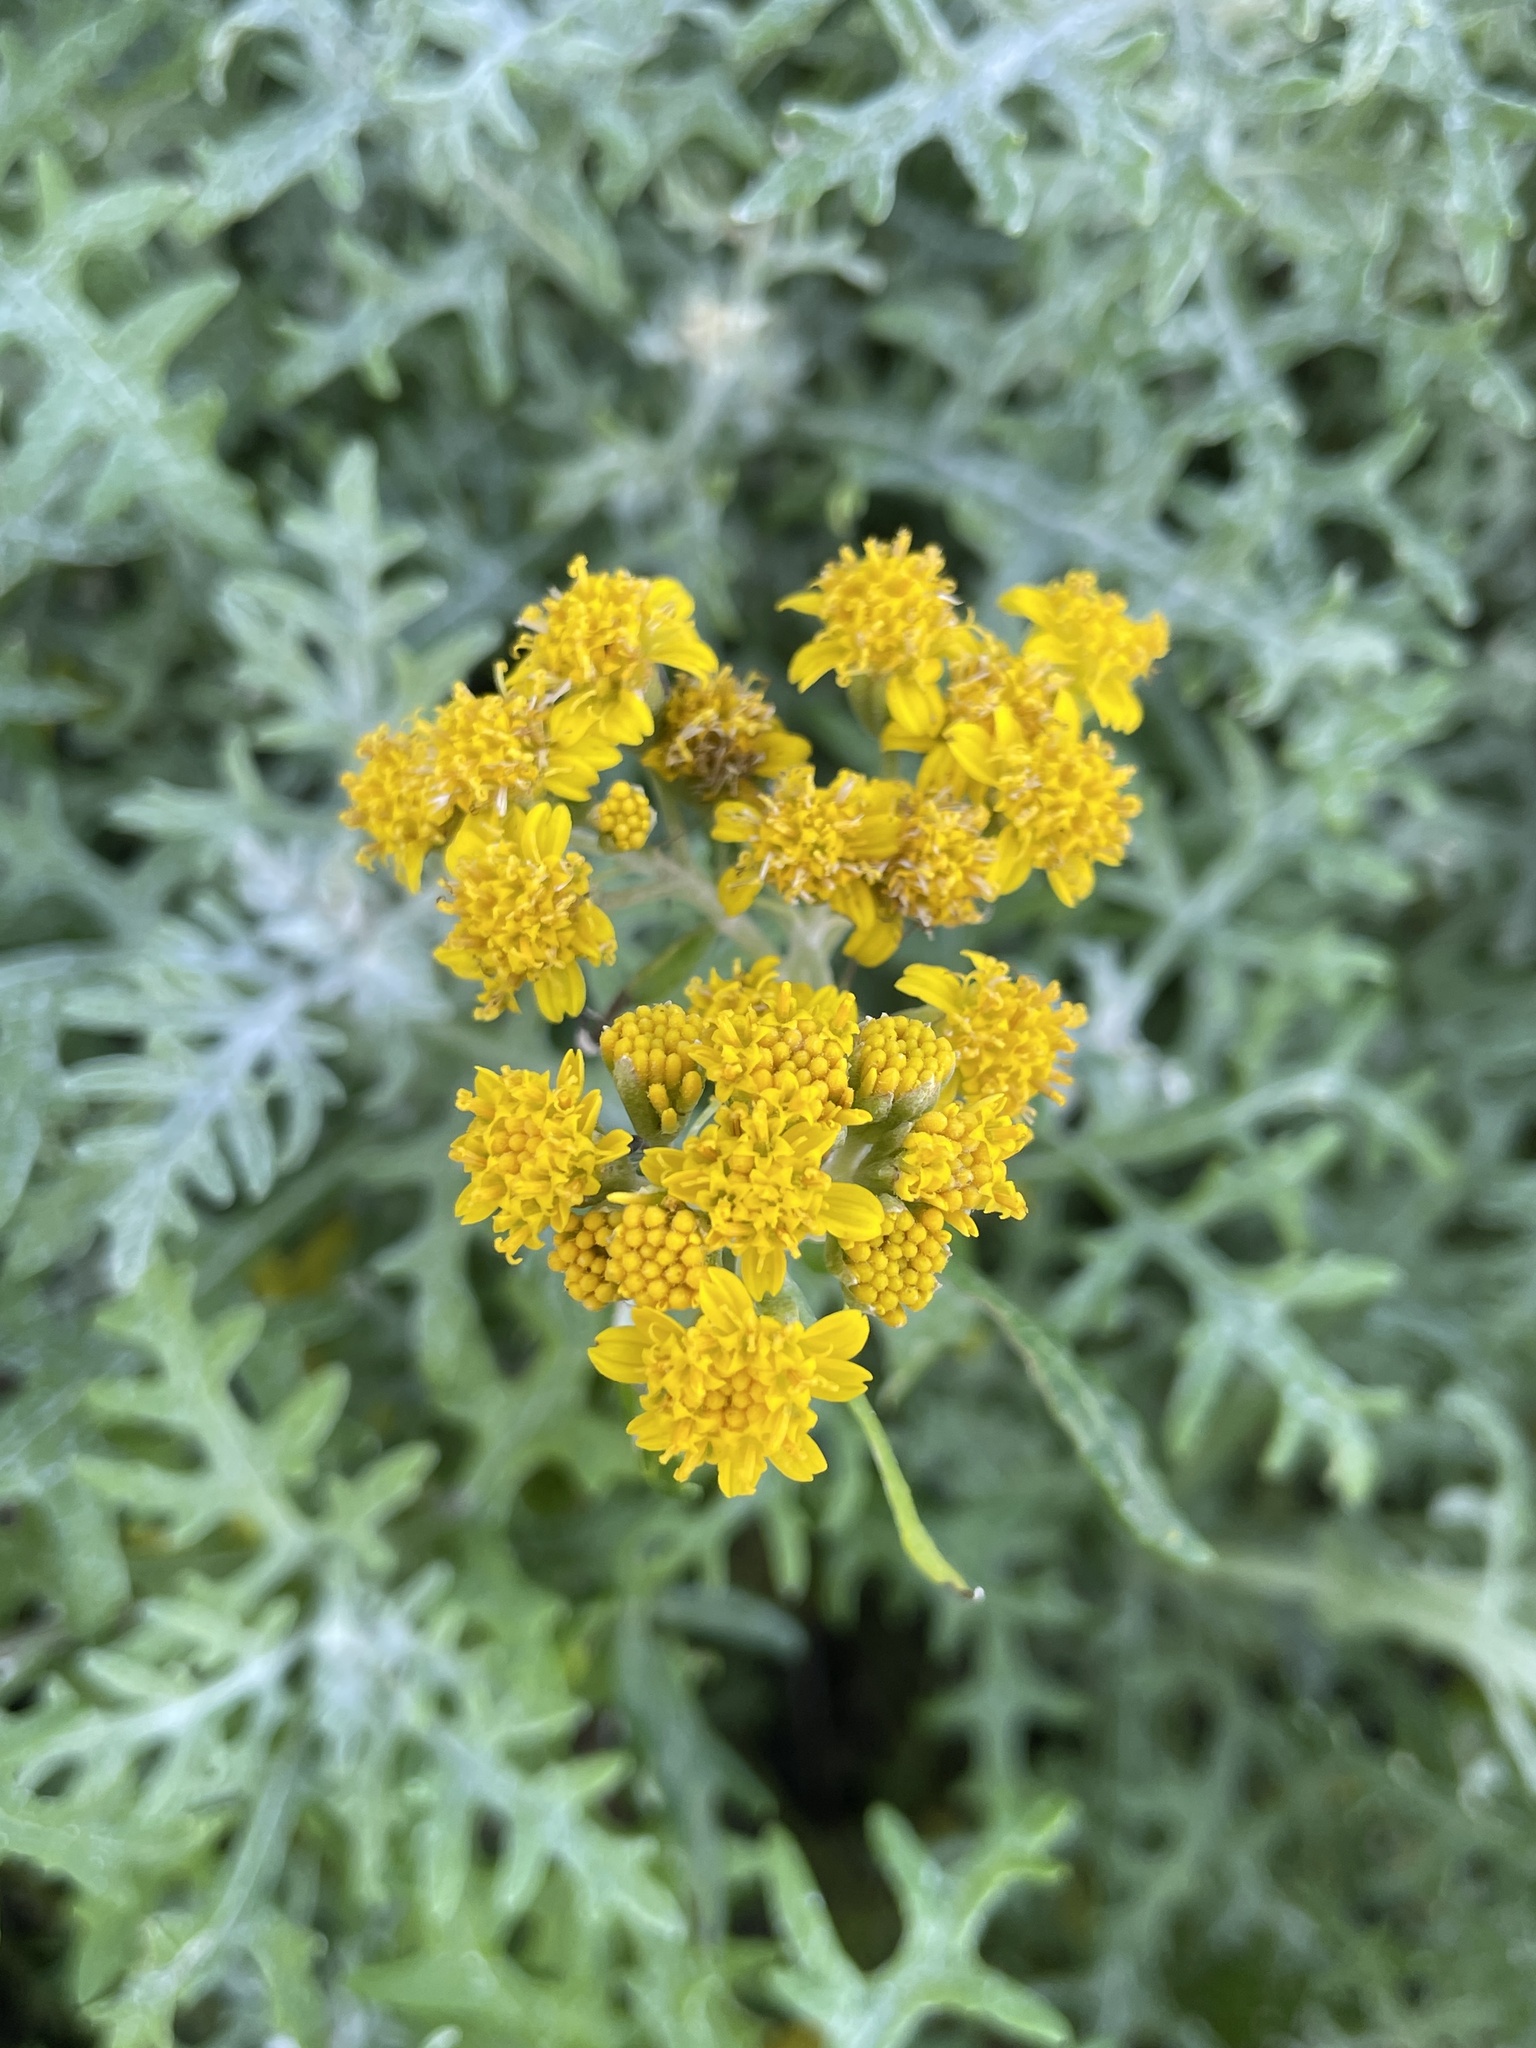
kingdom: Plantae
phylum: Tracheophyta
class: Magnoliopsida
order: Asterales
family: Asteraceae
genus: Eriophyllum
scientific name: Eriophyllum staechadifolium
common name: Lizardtail
